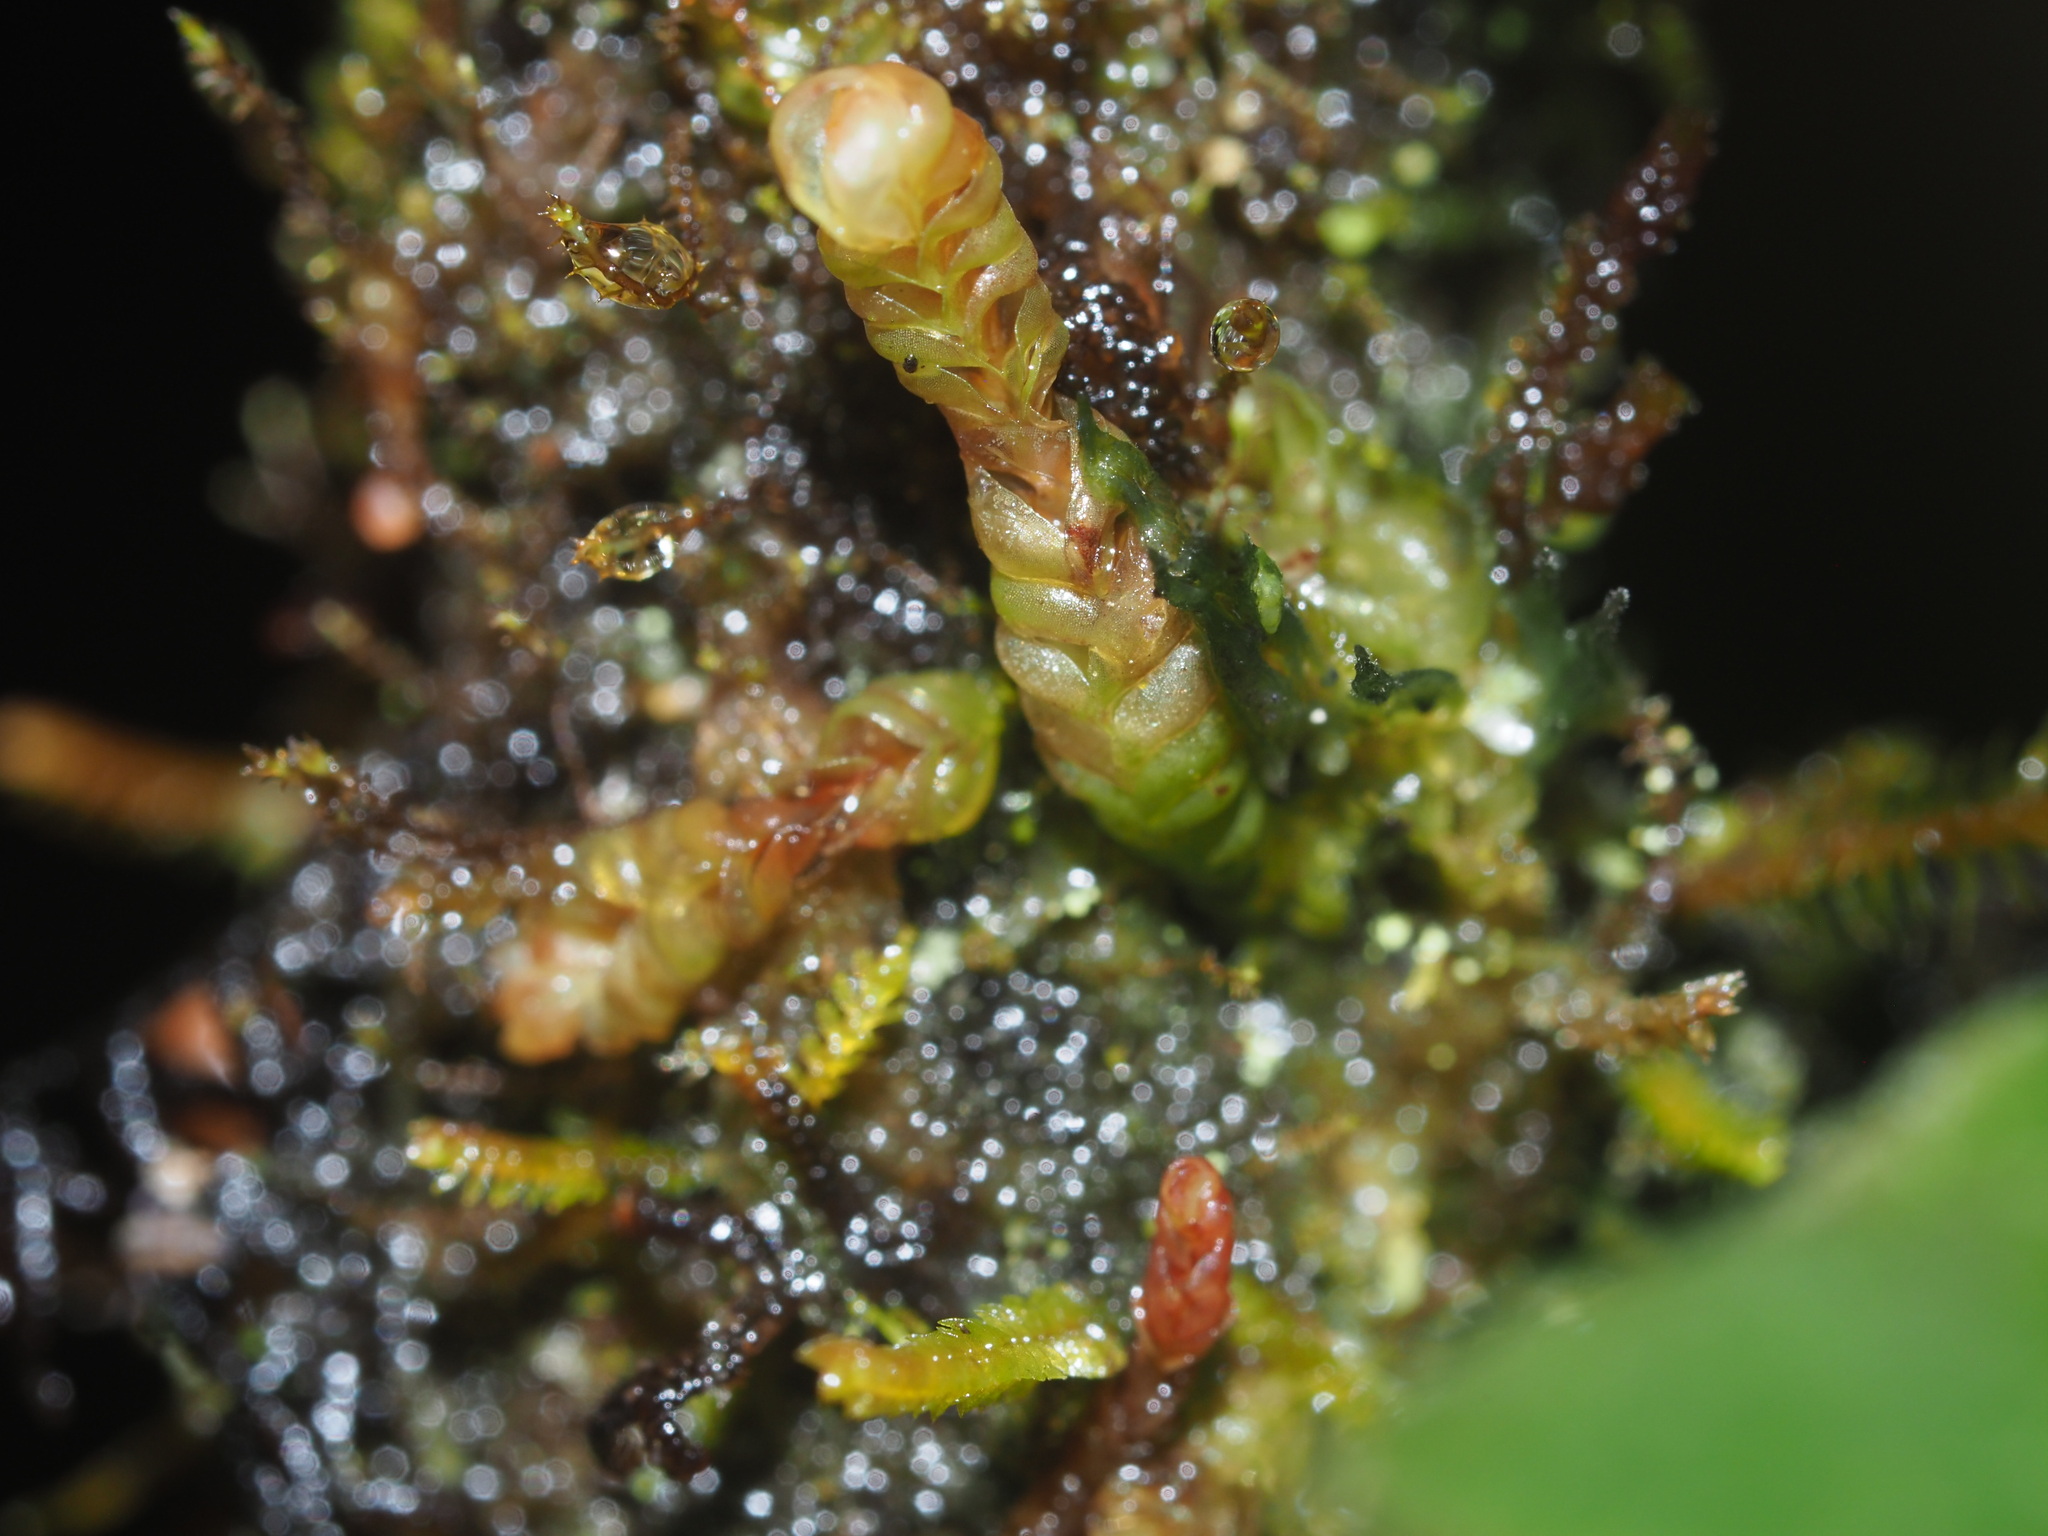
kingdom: Plantae
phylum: Marchantiophyta
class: Jungermanniopsida
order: Jungermanniales
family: Adelanthaceae
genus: Cuspidatula
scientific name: Cuspidatula
